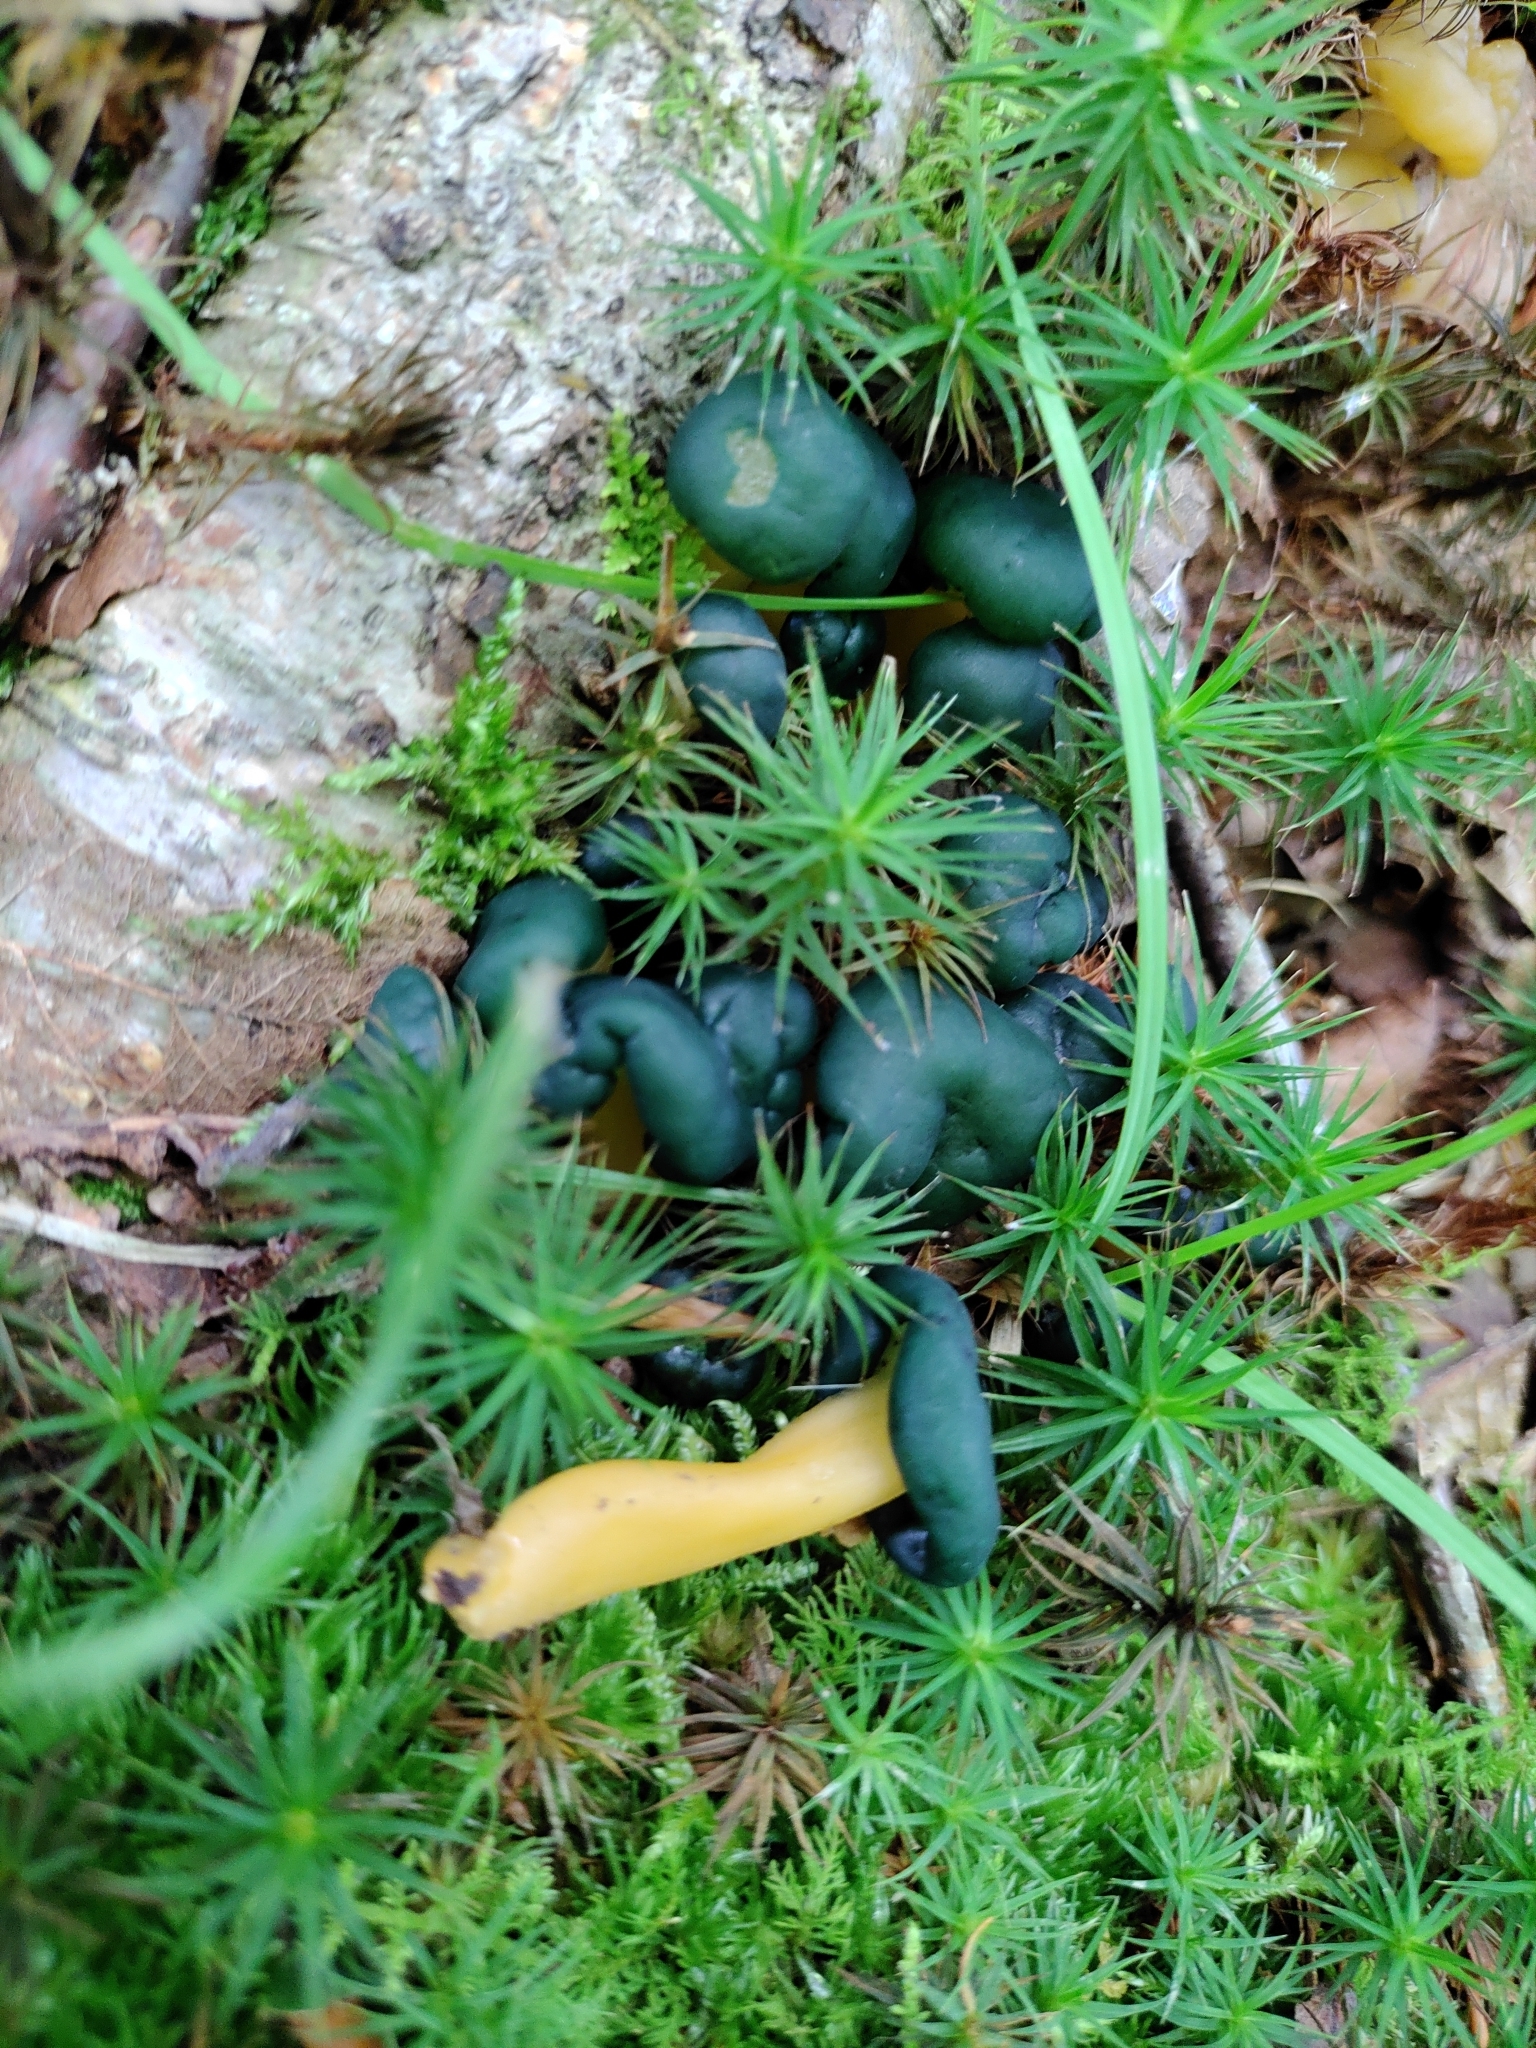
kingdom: Fungi
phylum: Ascomycota
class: Leotiomycetes
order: Leotiales
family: Leotiaceae
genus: Leotia
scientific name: Leotia lubrica
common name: Jellybaby
